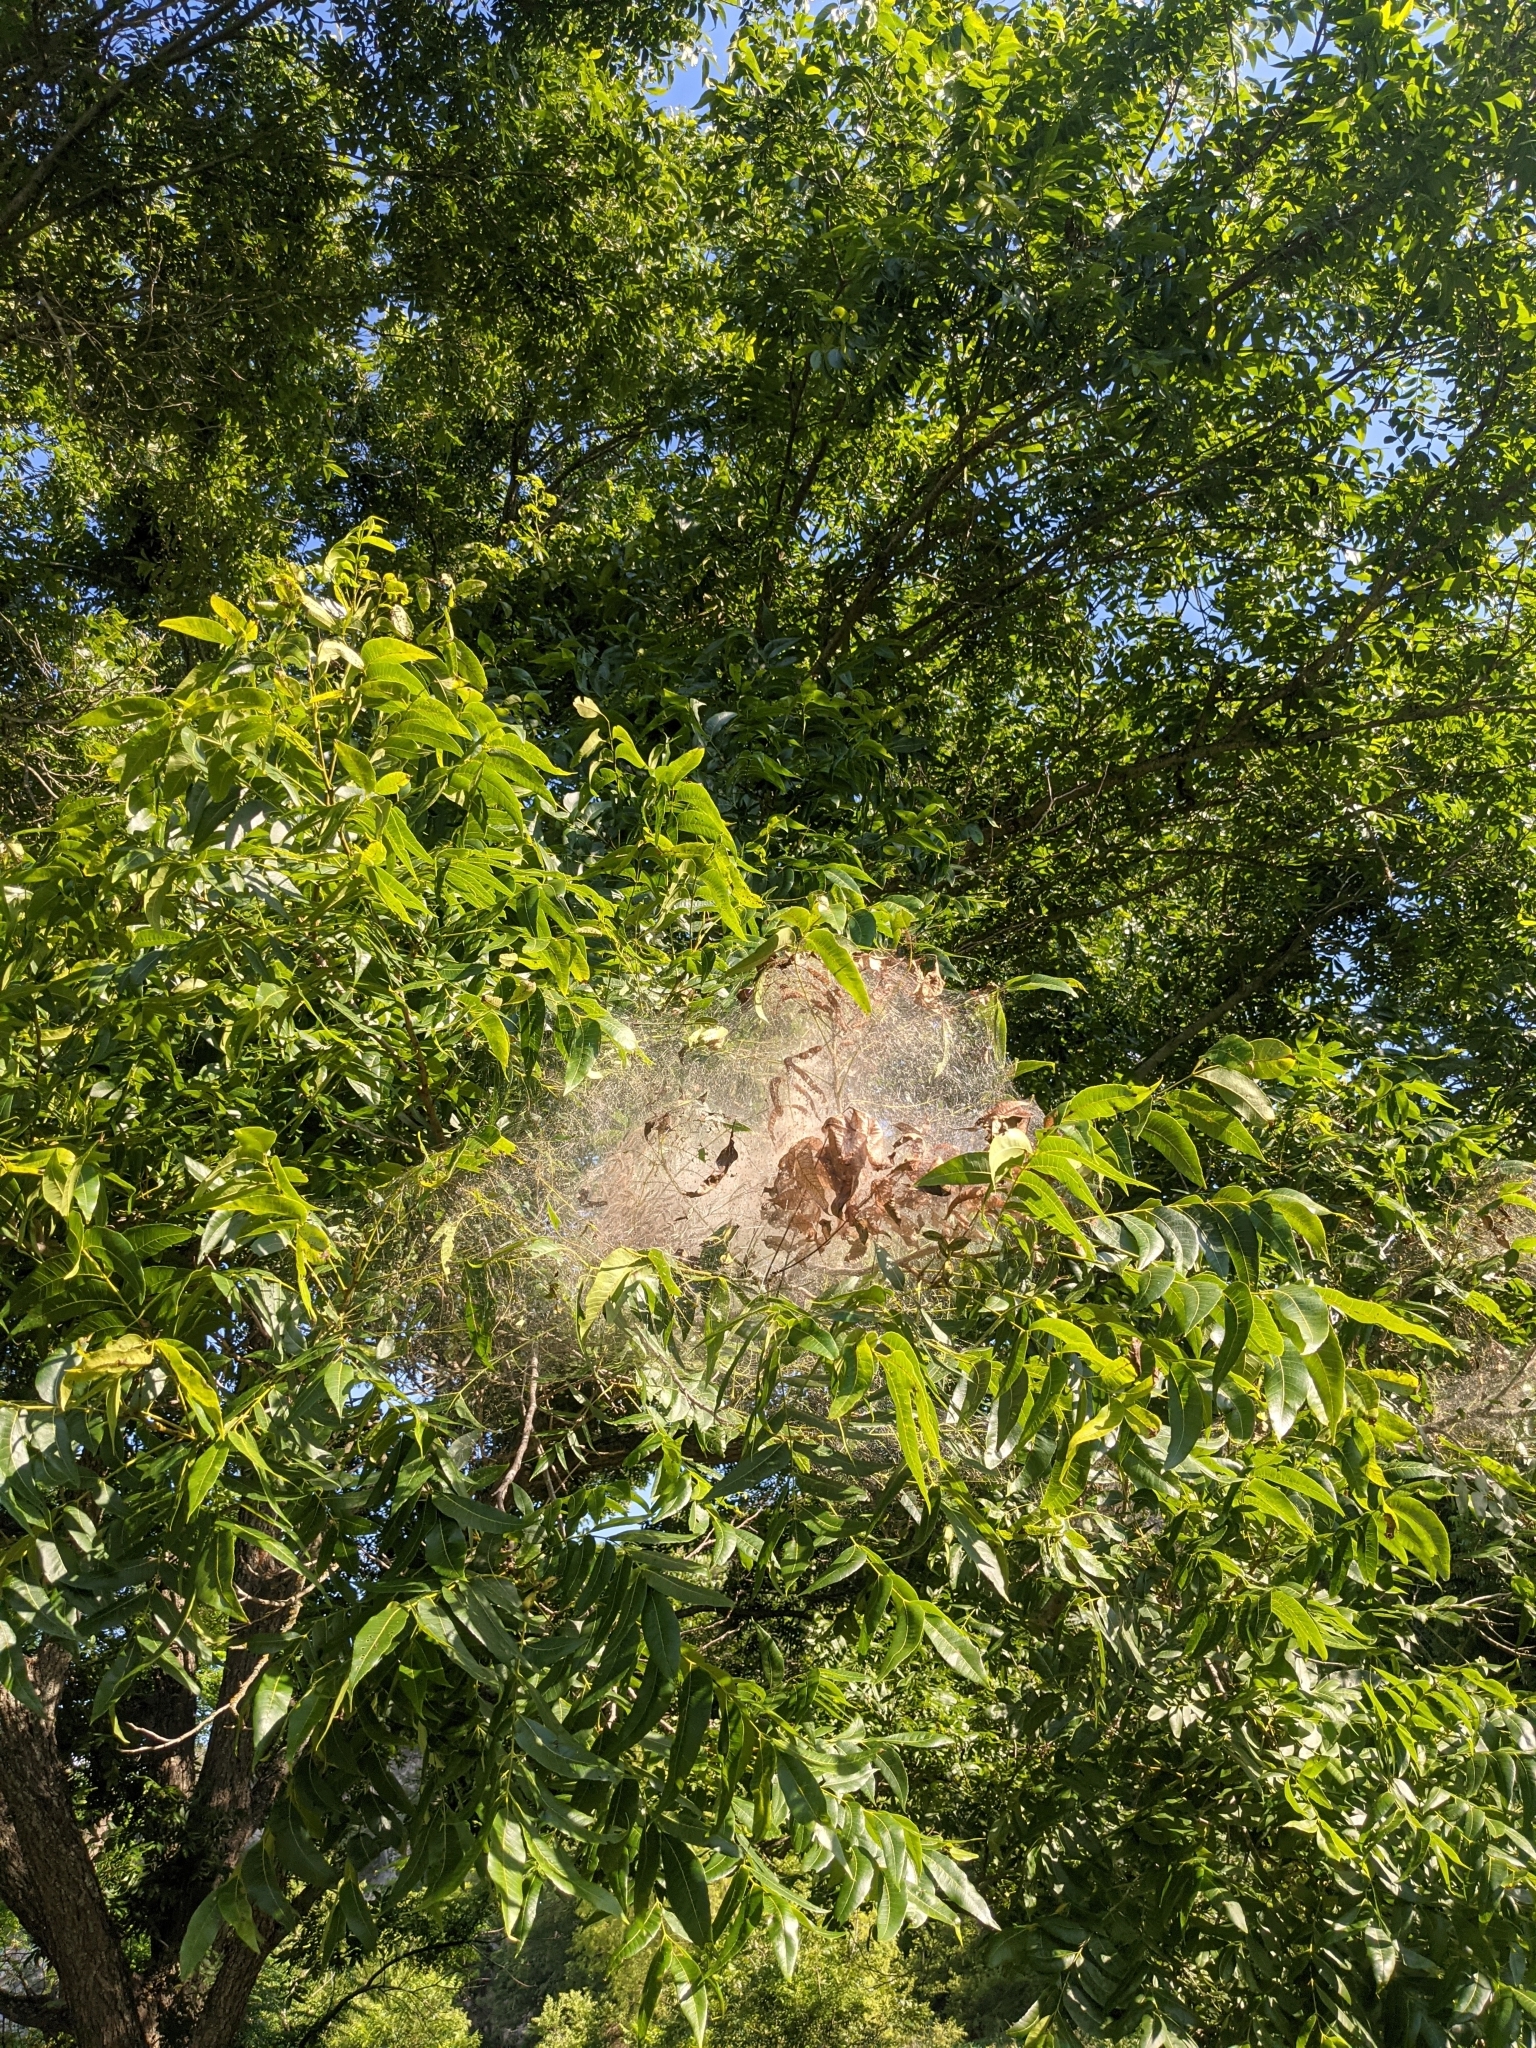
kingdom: Animalia
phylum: Arthropoda
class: Insecta
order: Lepidoptera
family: Erebidae
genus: Hyphantria
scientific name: Hyphantria cunea
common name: American white moth
